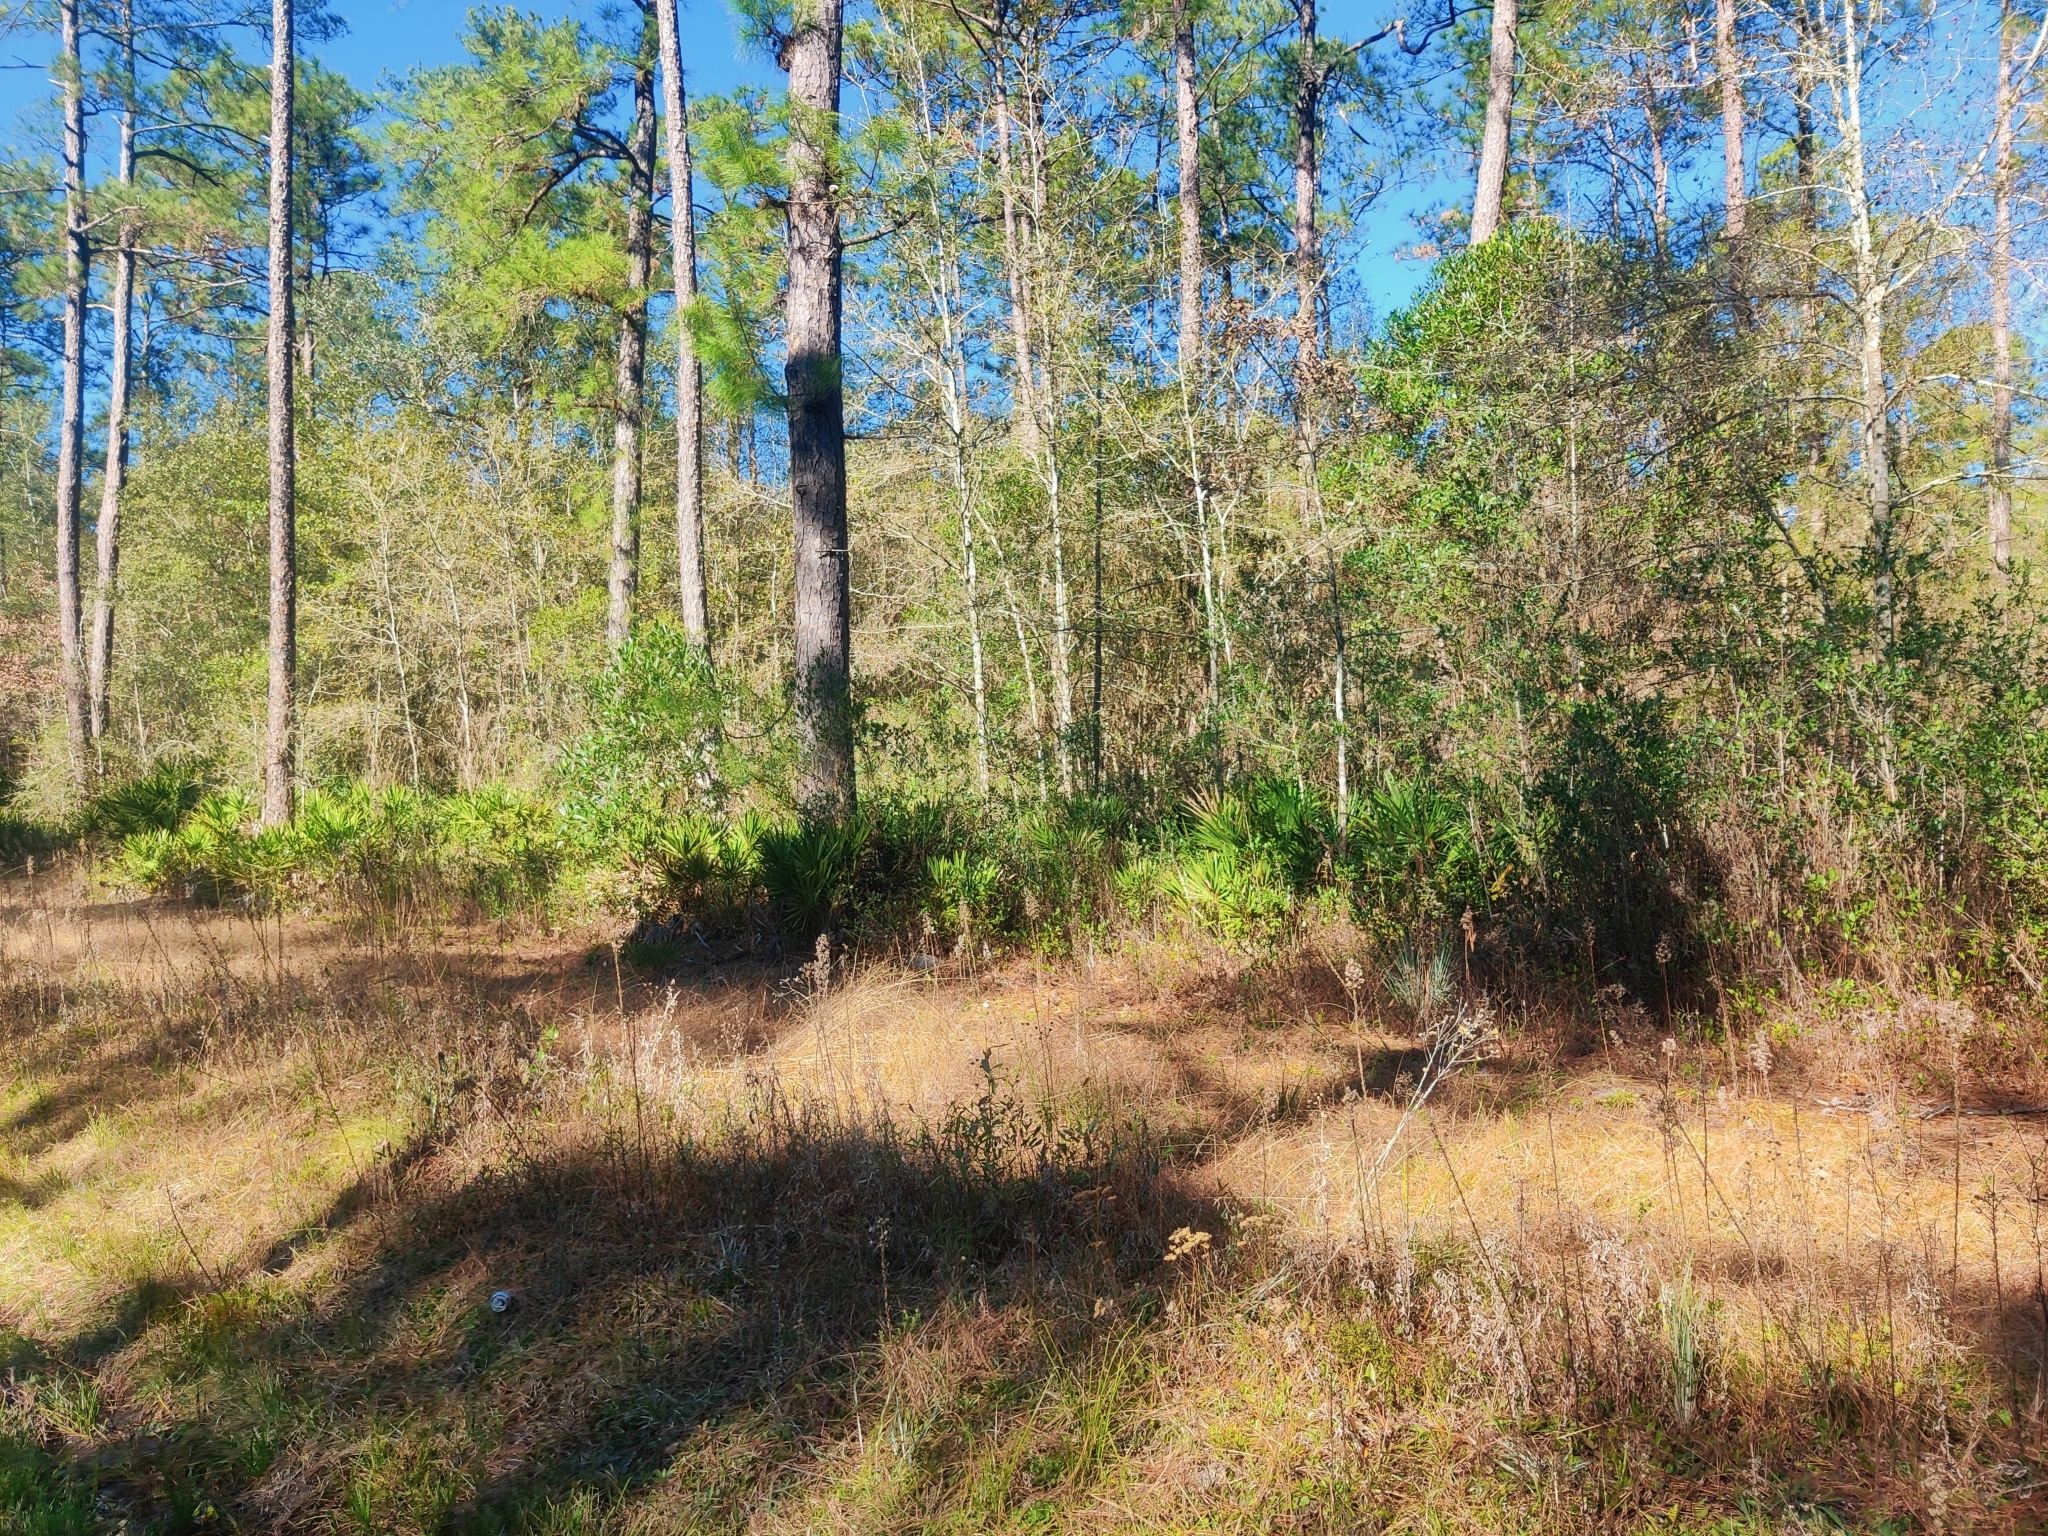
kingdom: Plantae
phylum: Tracheophyta
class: Liliopsida
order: Arecales
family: Arecaceae
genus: Serenoa
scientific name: Serenoa repens
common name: Saw-palmetto
